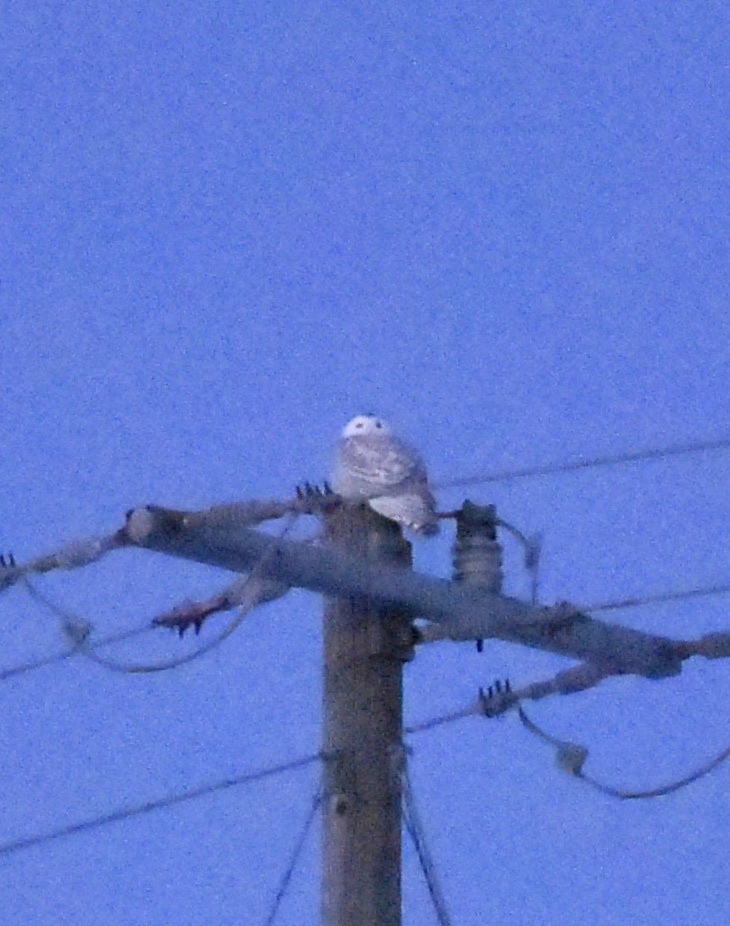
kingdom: Animalia
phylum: Chordata
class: Aves
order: Strigiformes
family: Strigidae
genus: Bubo
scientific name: Bubo scandiacus
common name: Snowy owl
